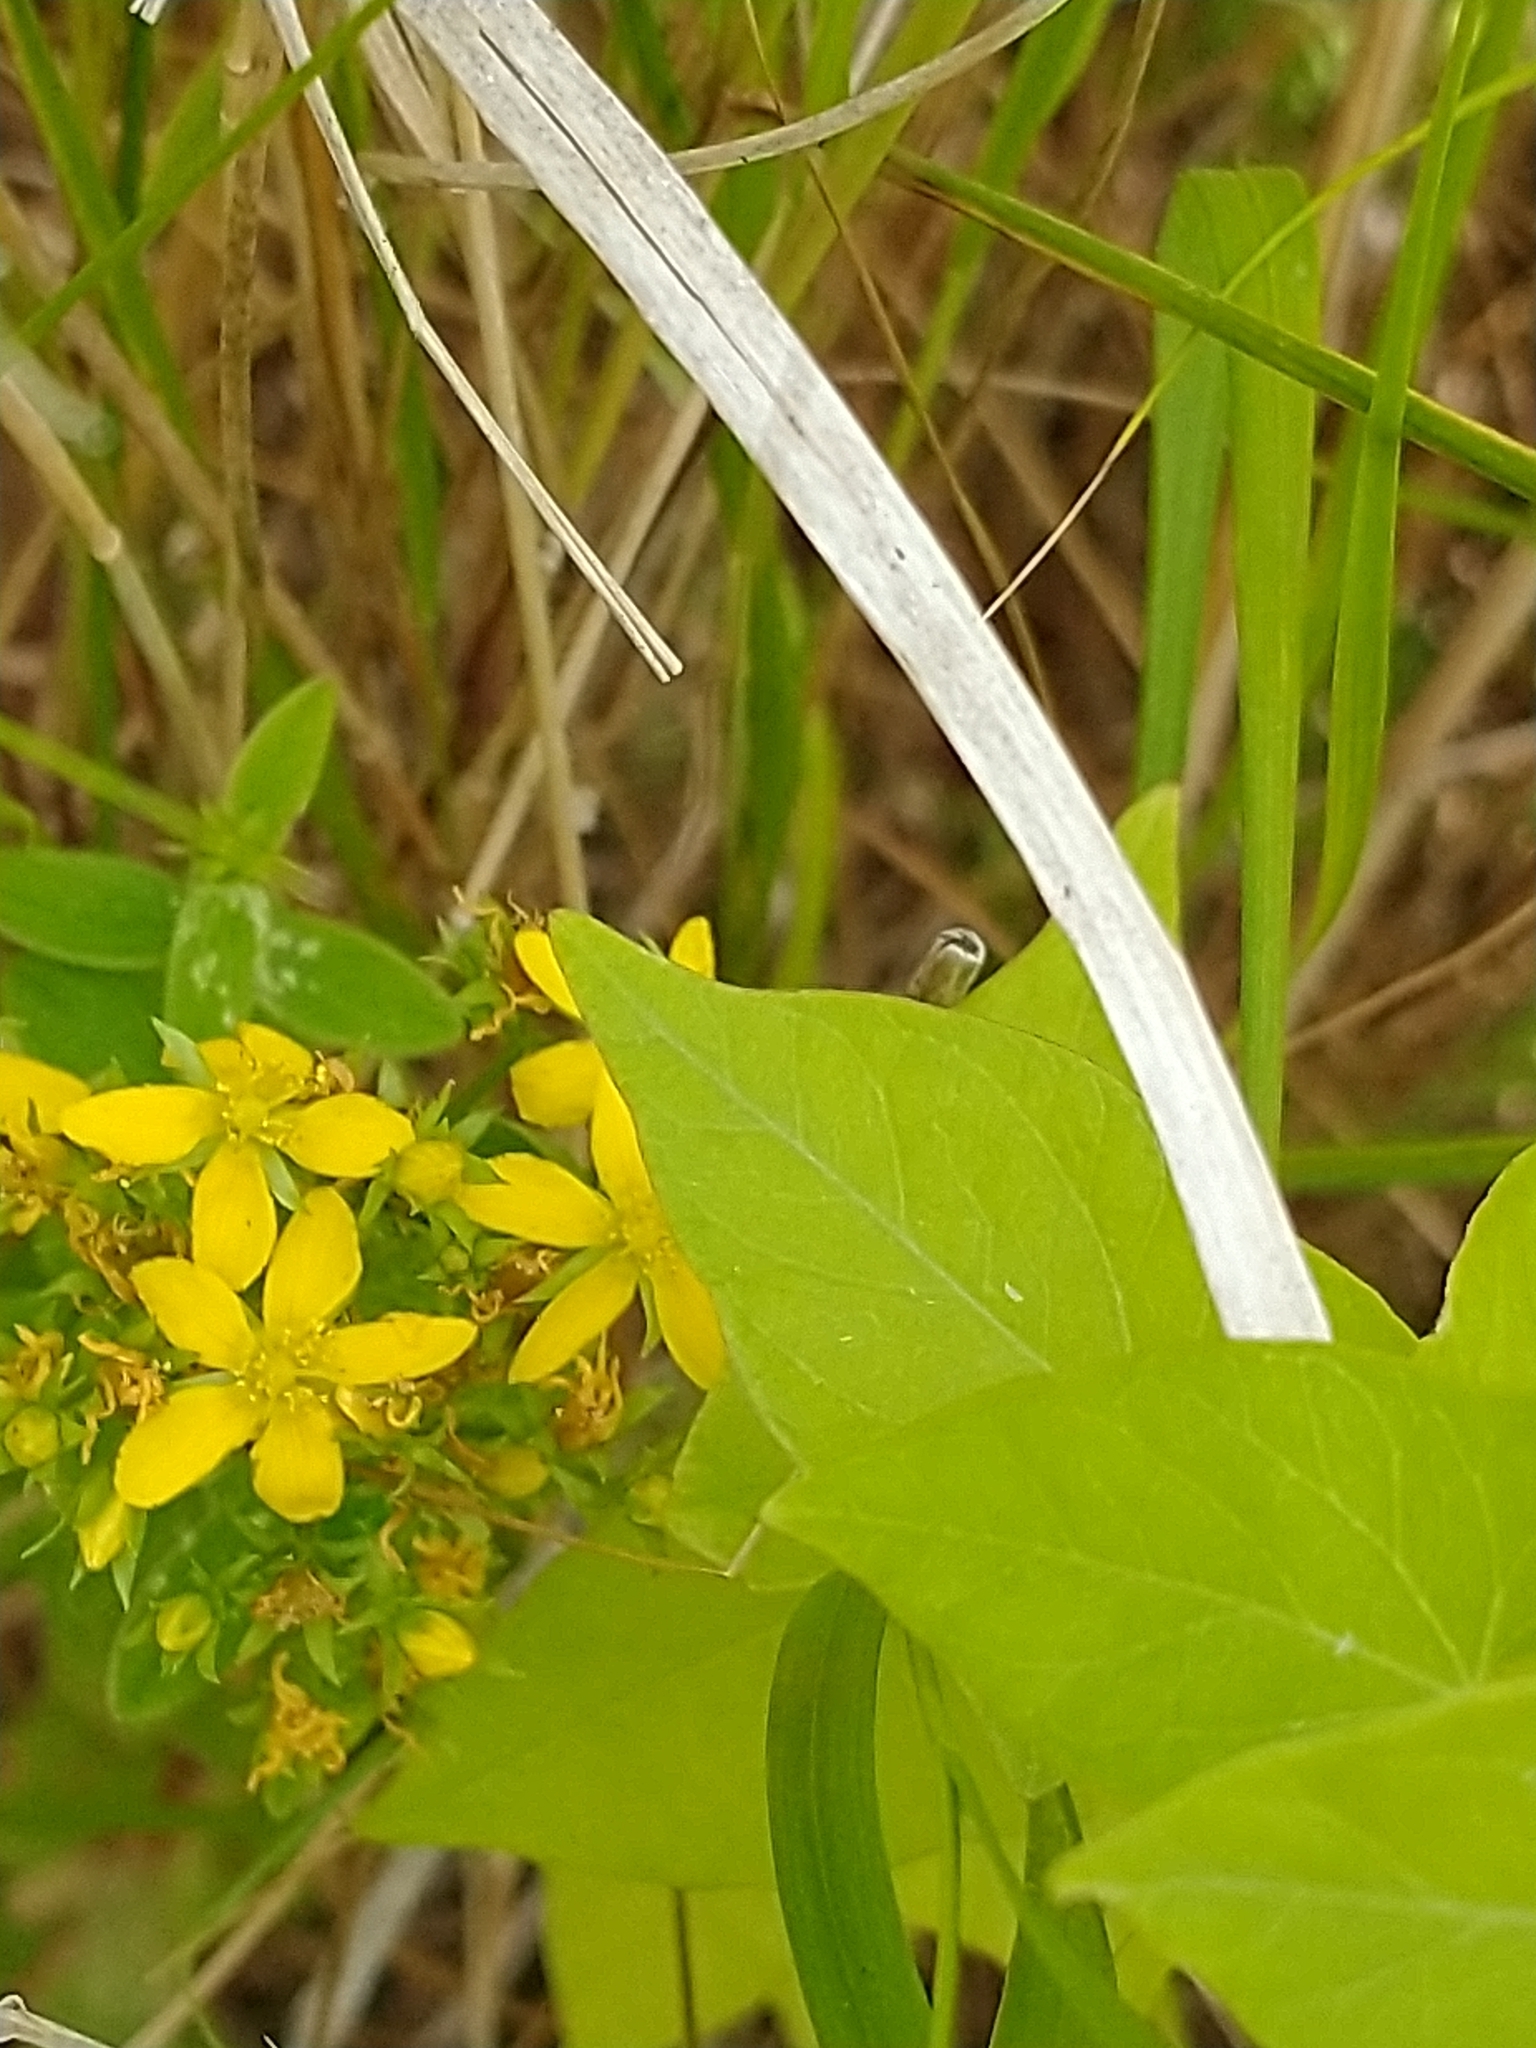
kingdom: Plantae
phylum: Tracheophyta
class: Magnoliopsida
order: Malpighiales
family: Hypericaceae
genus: Hypericum
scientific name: Hypericum tetrapterum
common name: Square-stalked st. john's-wort
